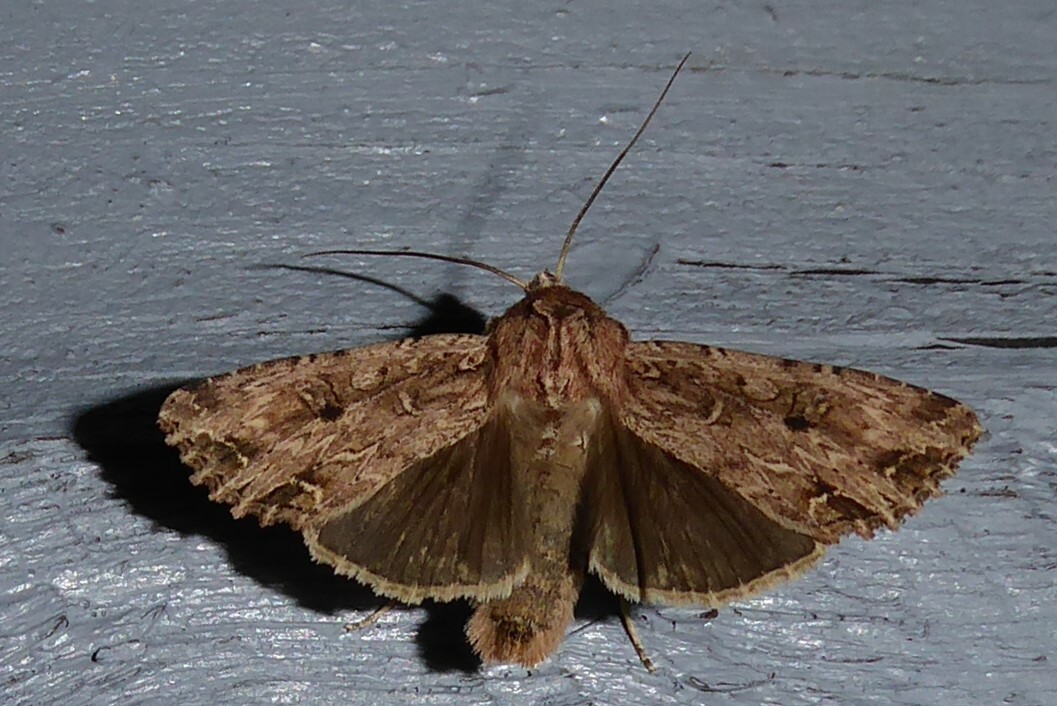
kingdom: Animalia
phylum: Arthropoda
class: Insecta
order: Lepidoptera
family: Noctuidae
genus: Ichneutica
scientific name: Ichneutica lignana
